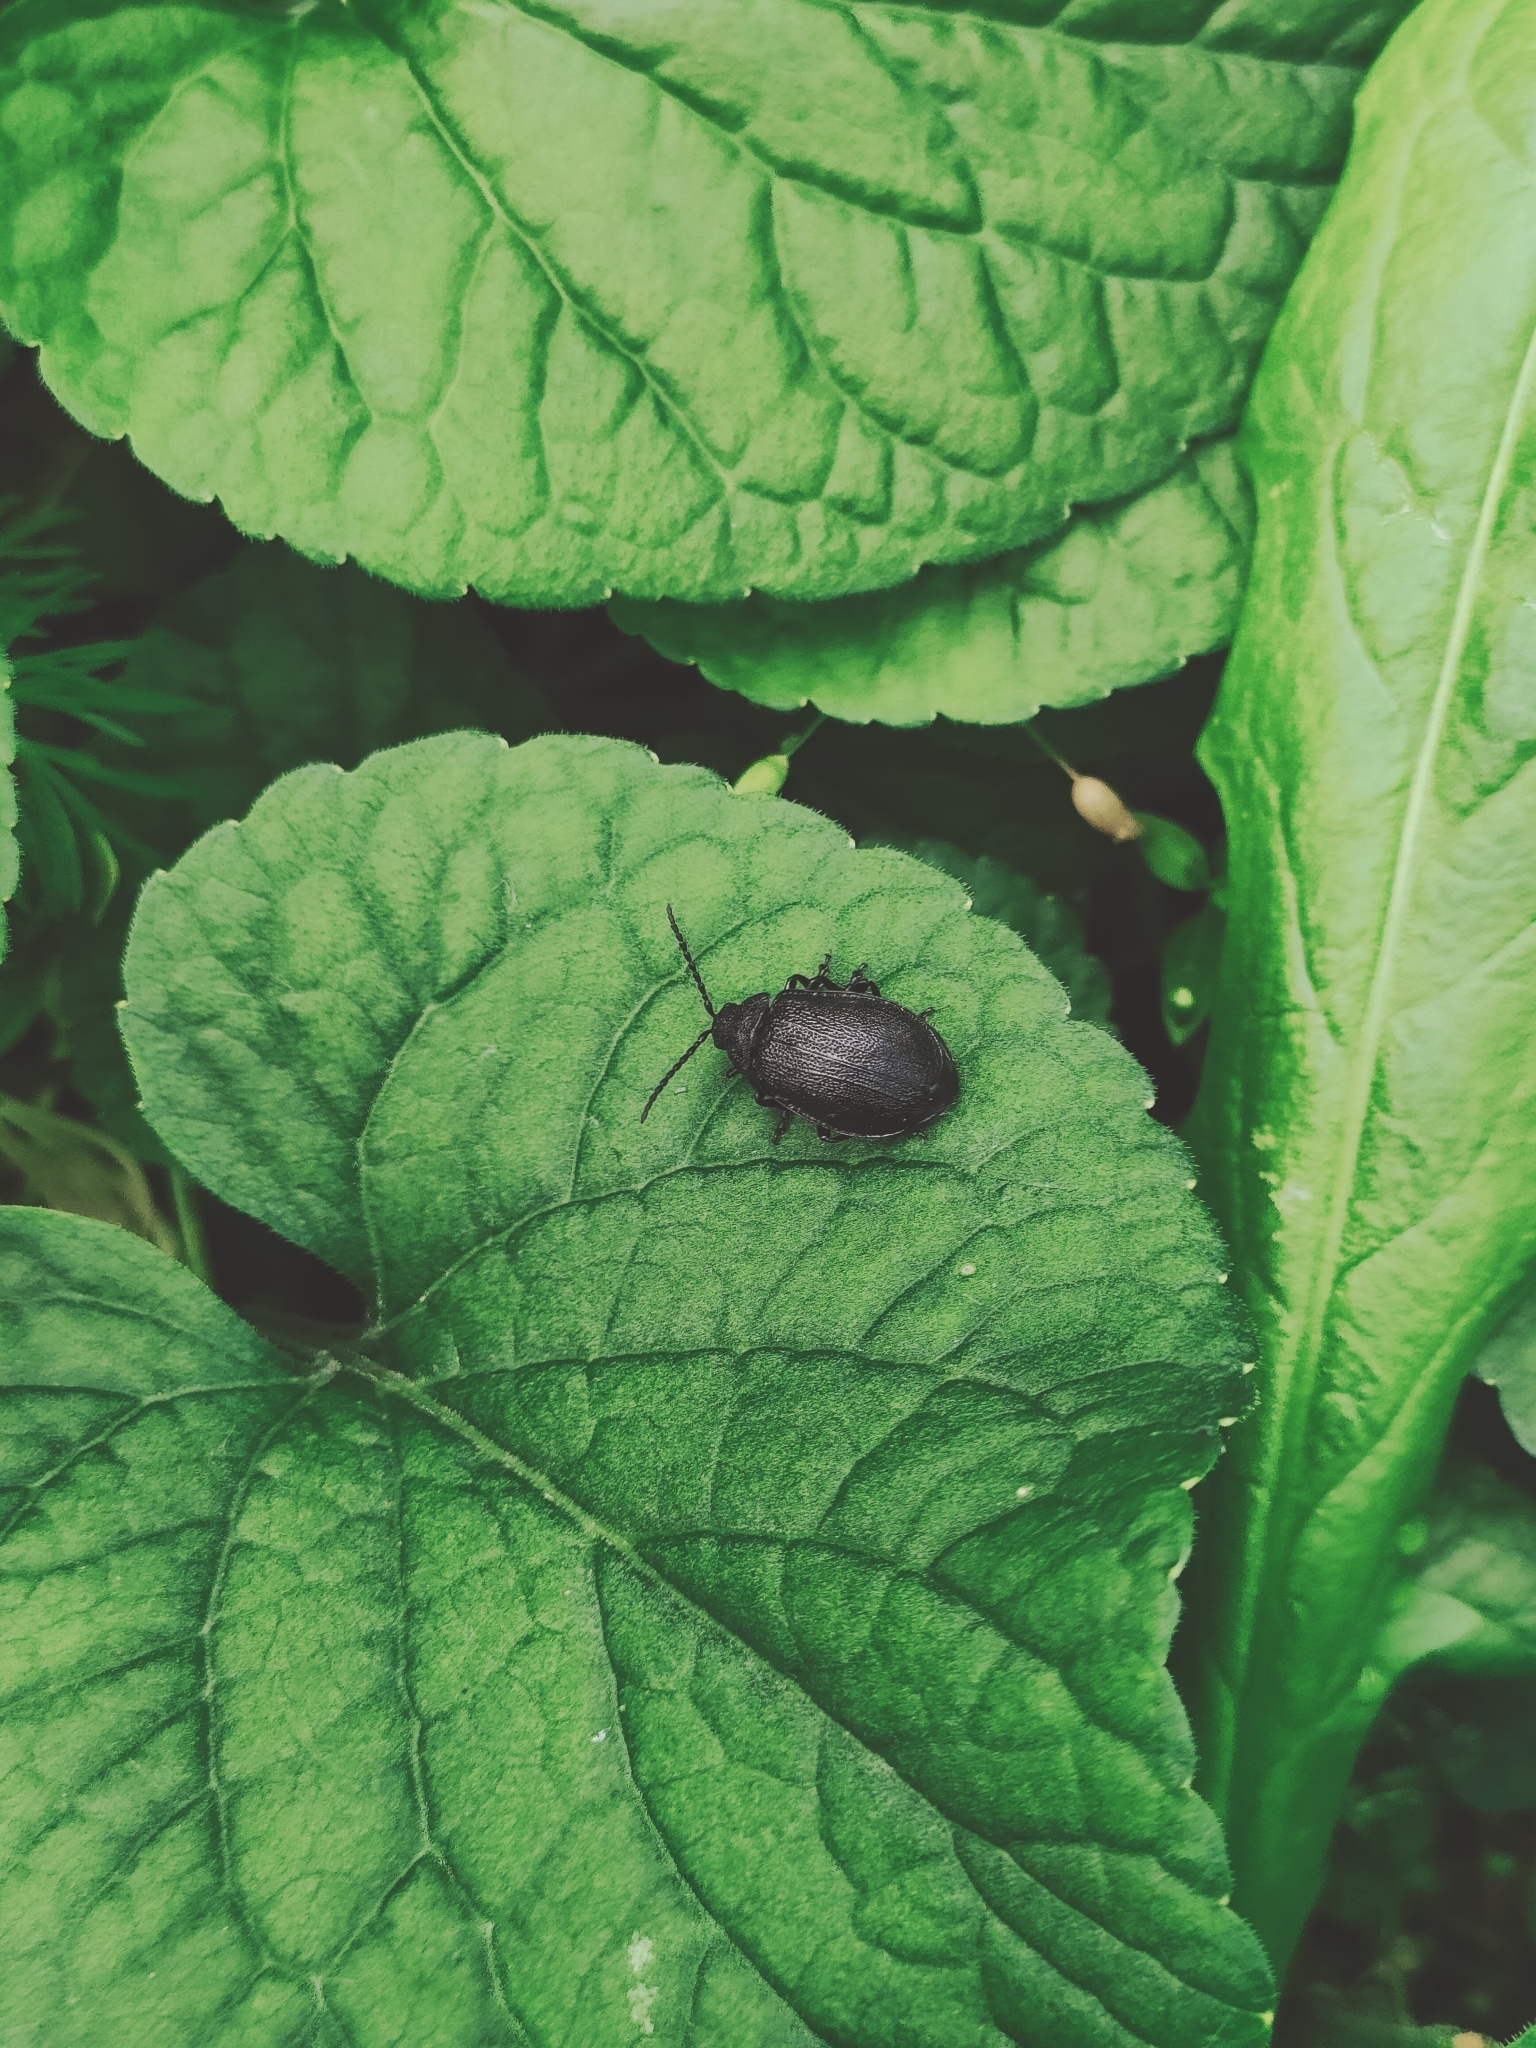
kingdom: Animalia
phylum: Arthropoda
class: Insecta
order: Coleoptera
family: Chrysomelidae
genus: Galeruca
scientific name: Galeruca tanaceti
